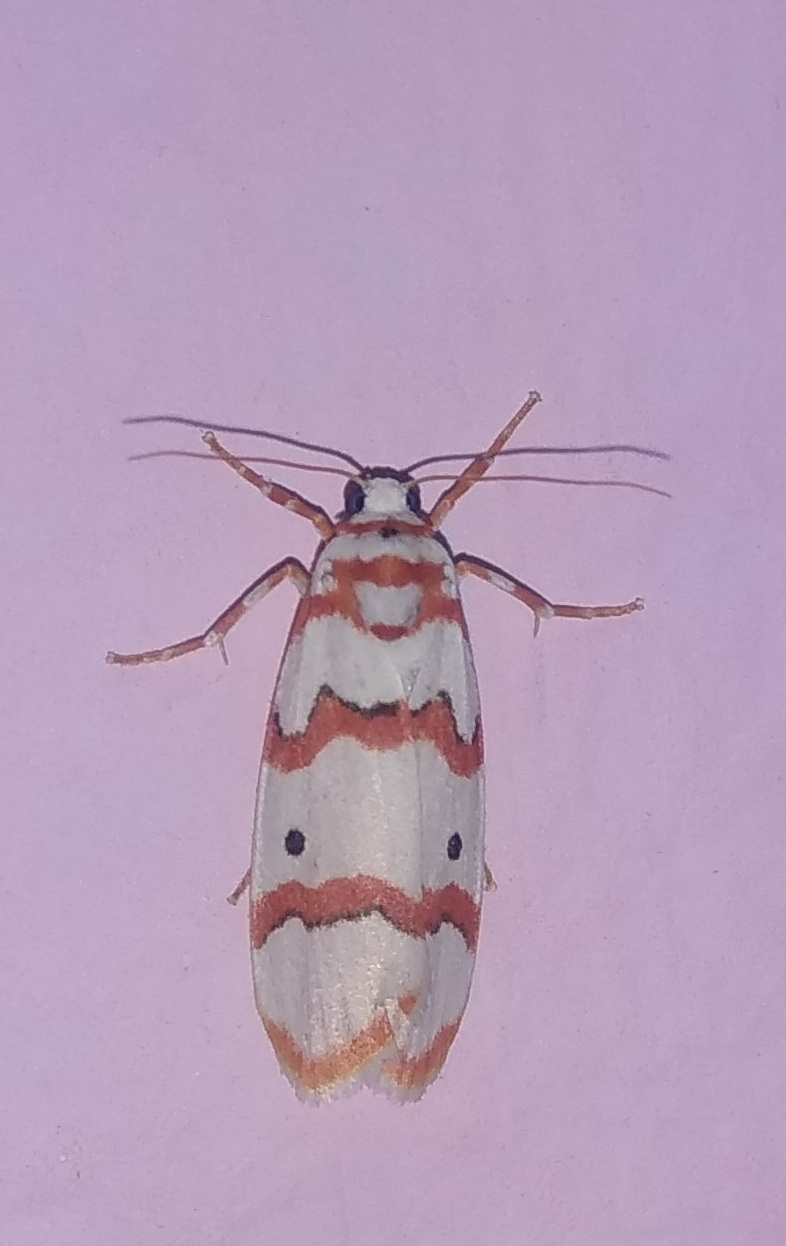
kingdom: Animalia
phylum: Arthropoda
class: Insecta
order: Lepidoptera
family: Erebidae
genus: Cyana
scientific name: Cyana puella
